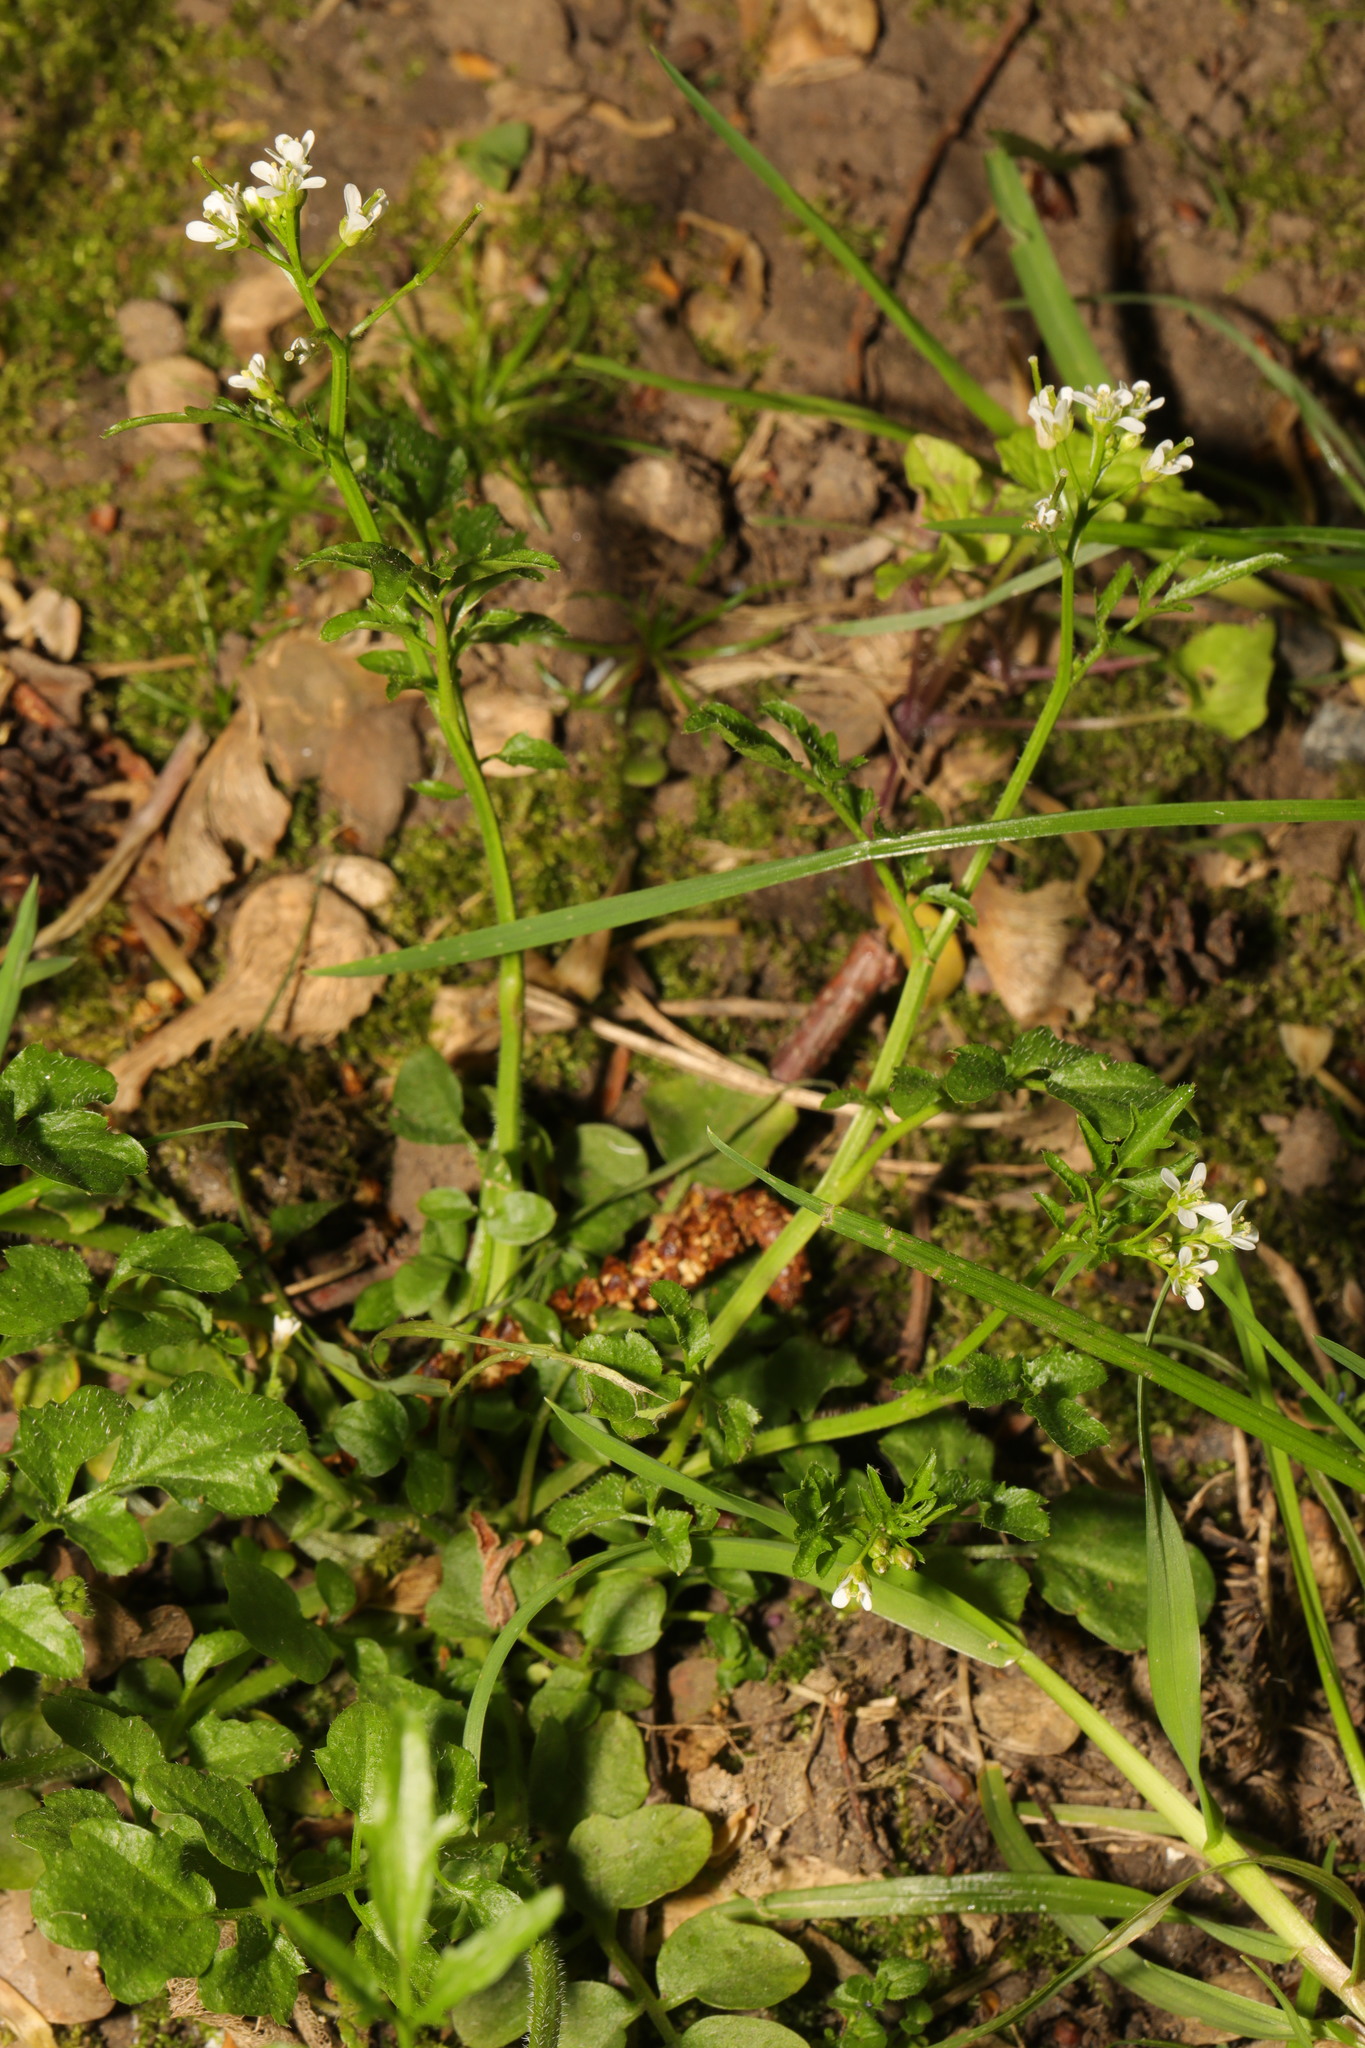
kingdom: Plantae
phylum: Tracheophyta
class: Magnoliopsida
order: Brassicales
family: Brassicaceae
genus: Cardamine
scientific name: Cardamine flexuosa
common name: Woodland bittercress
